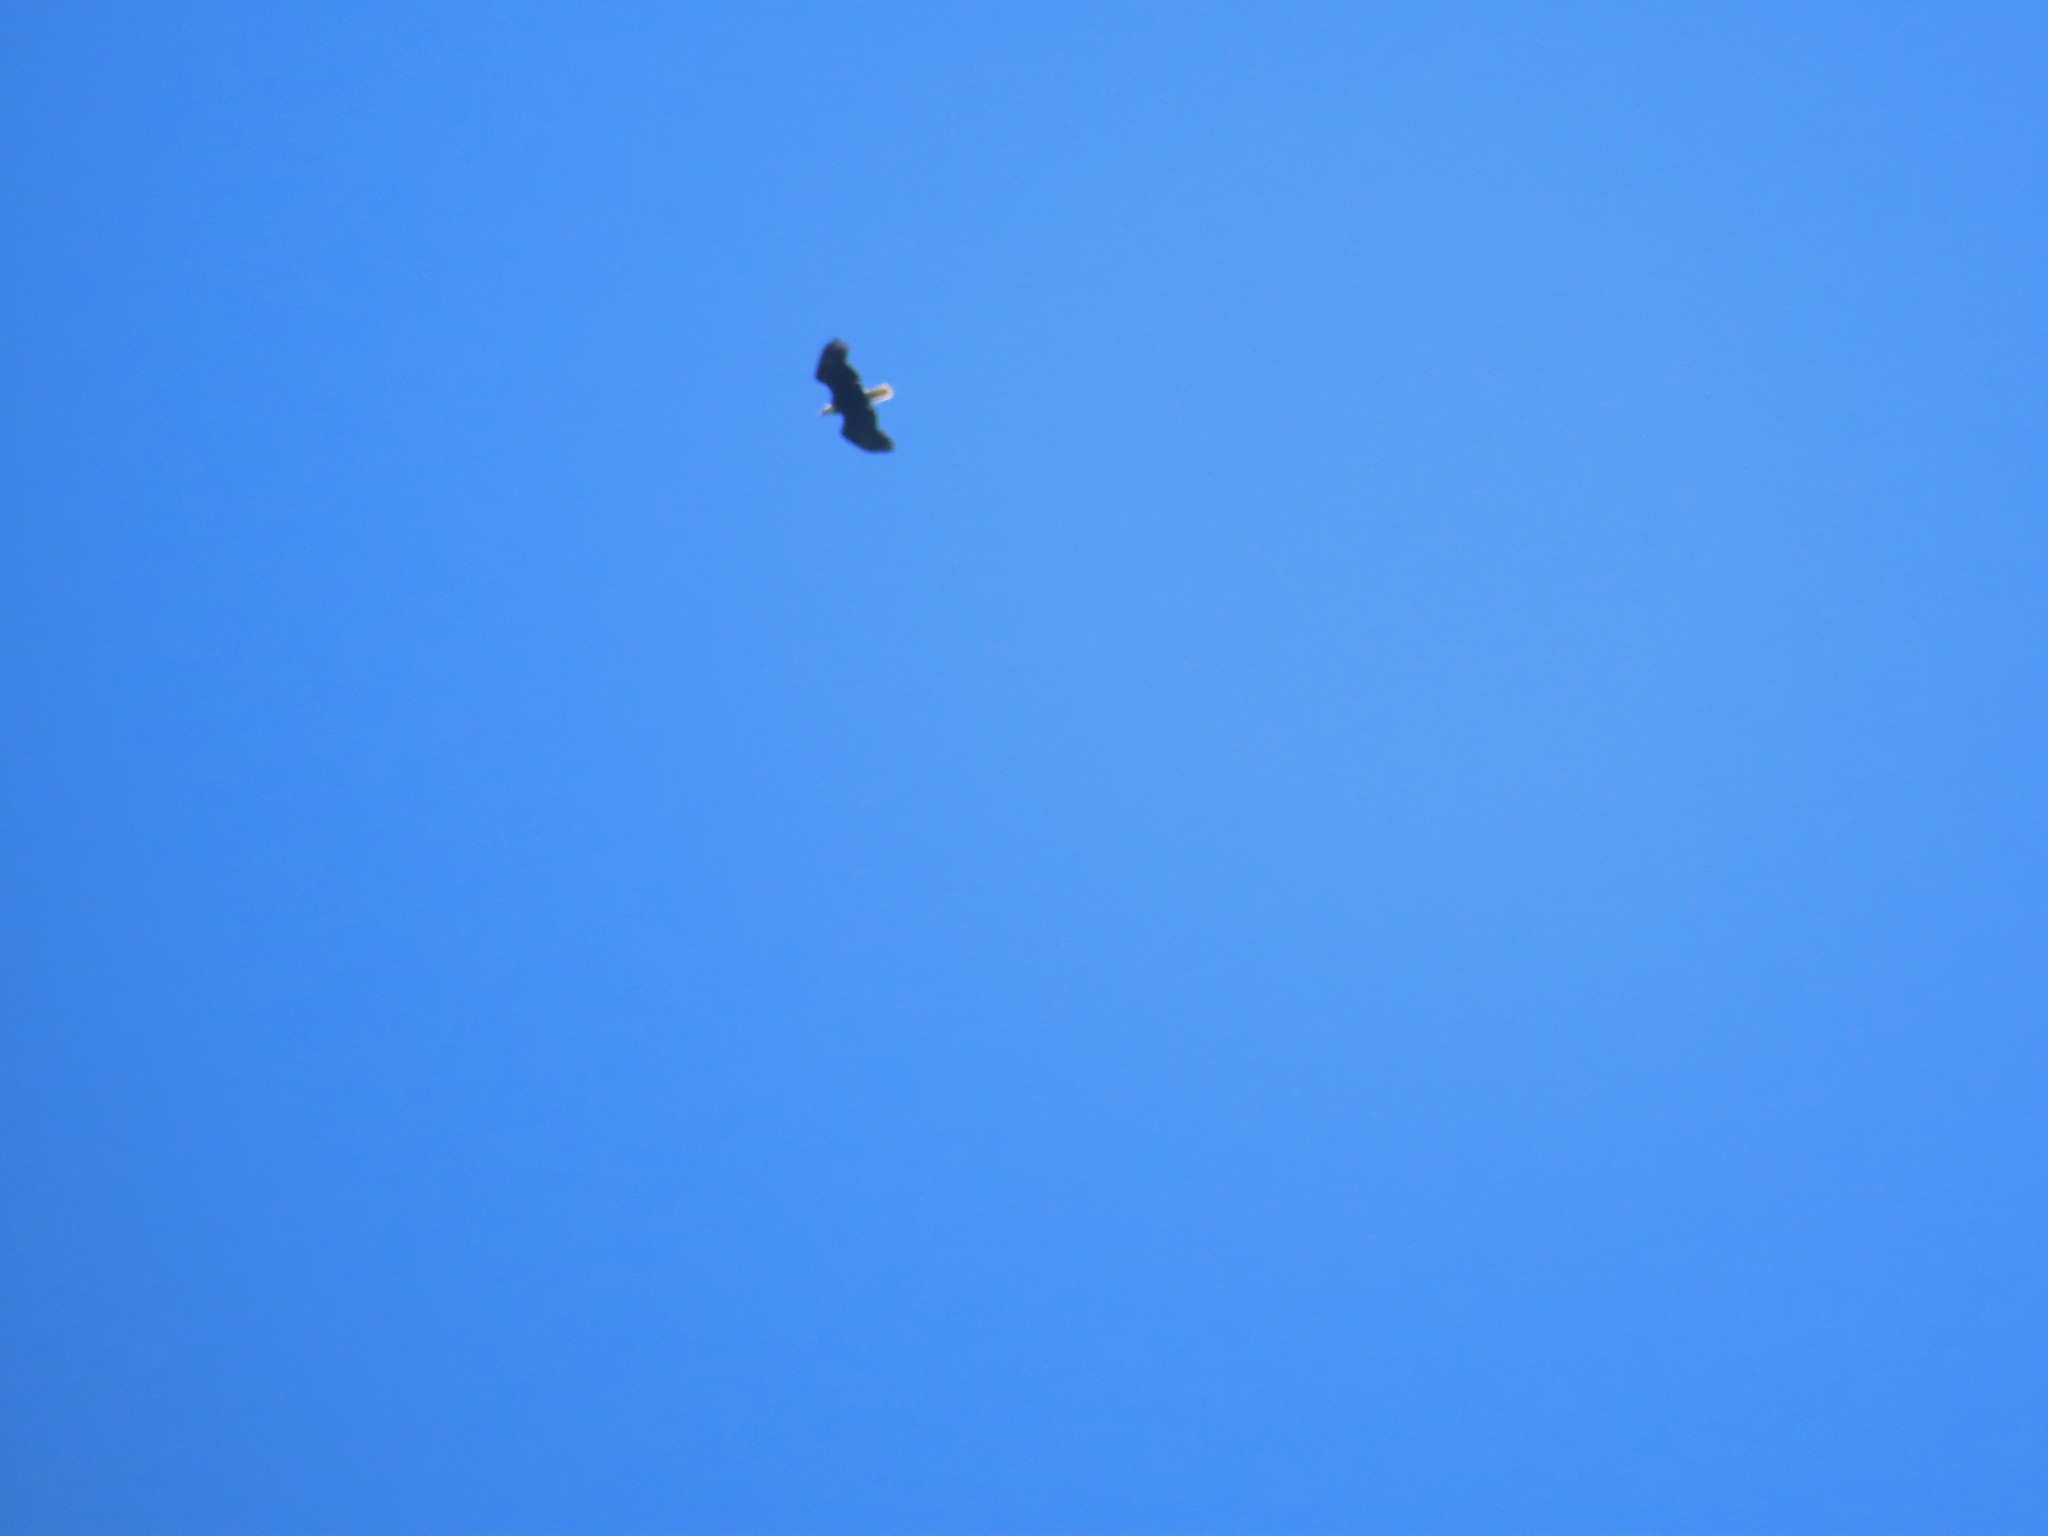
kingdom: Animalia
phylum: Chordata
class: Aves
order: Accipitriformes
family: Accipitridae
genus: Haliaeetus
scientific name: Haliaeetus leucocephalus
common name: Bald eagle
